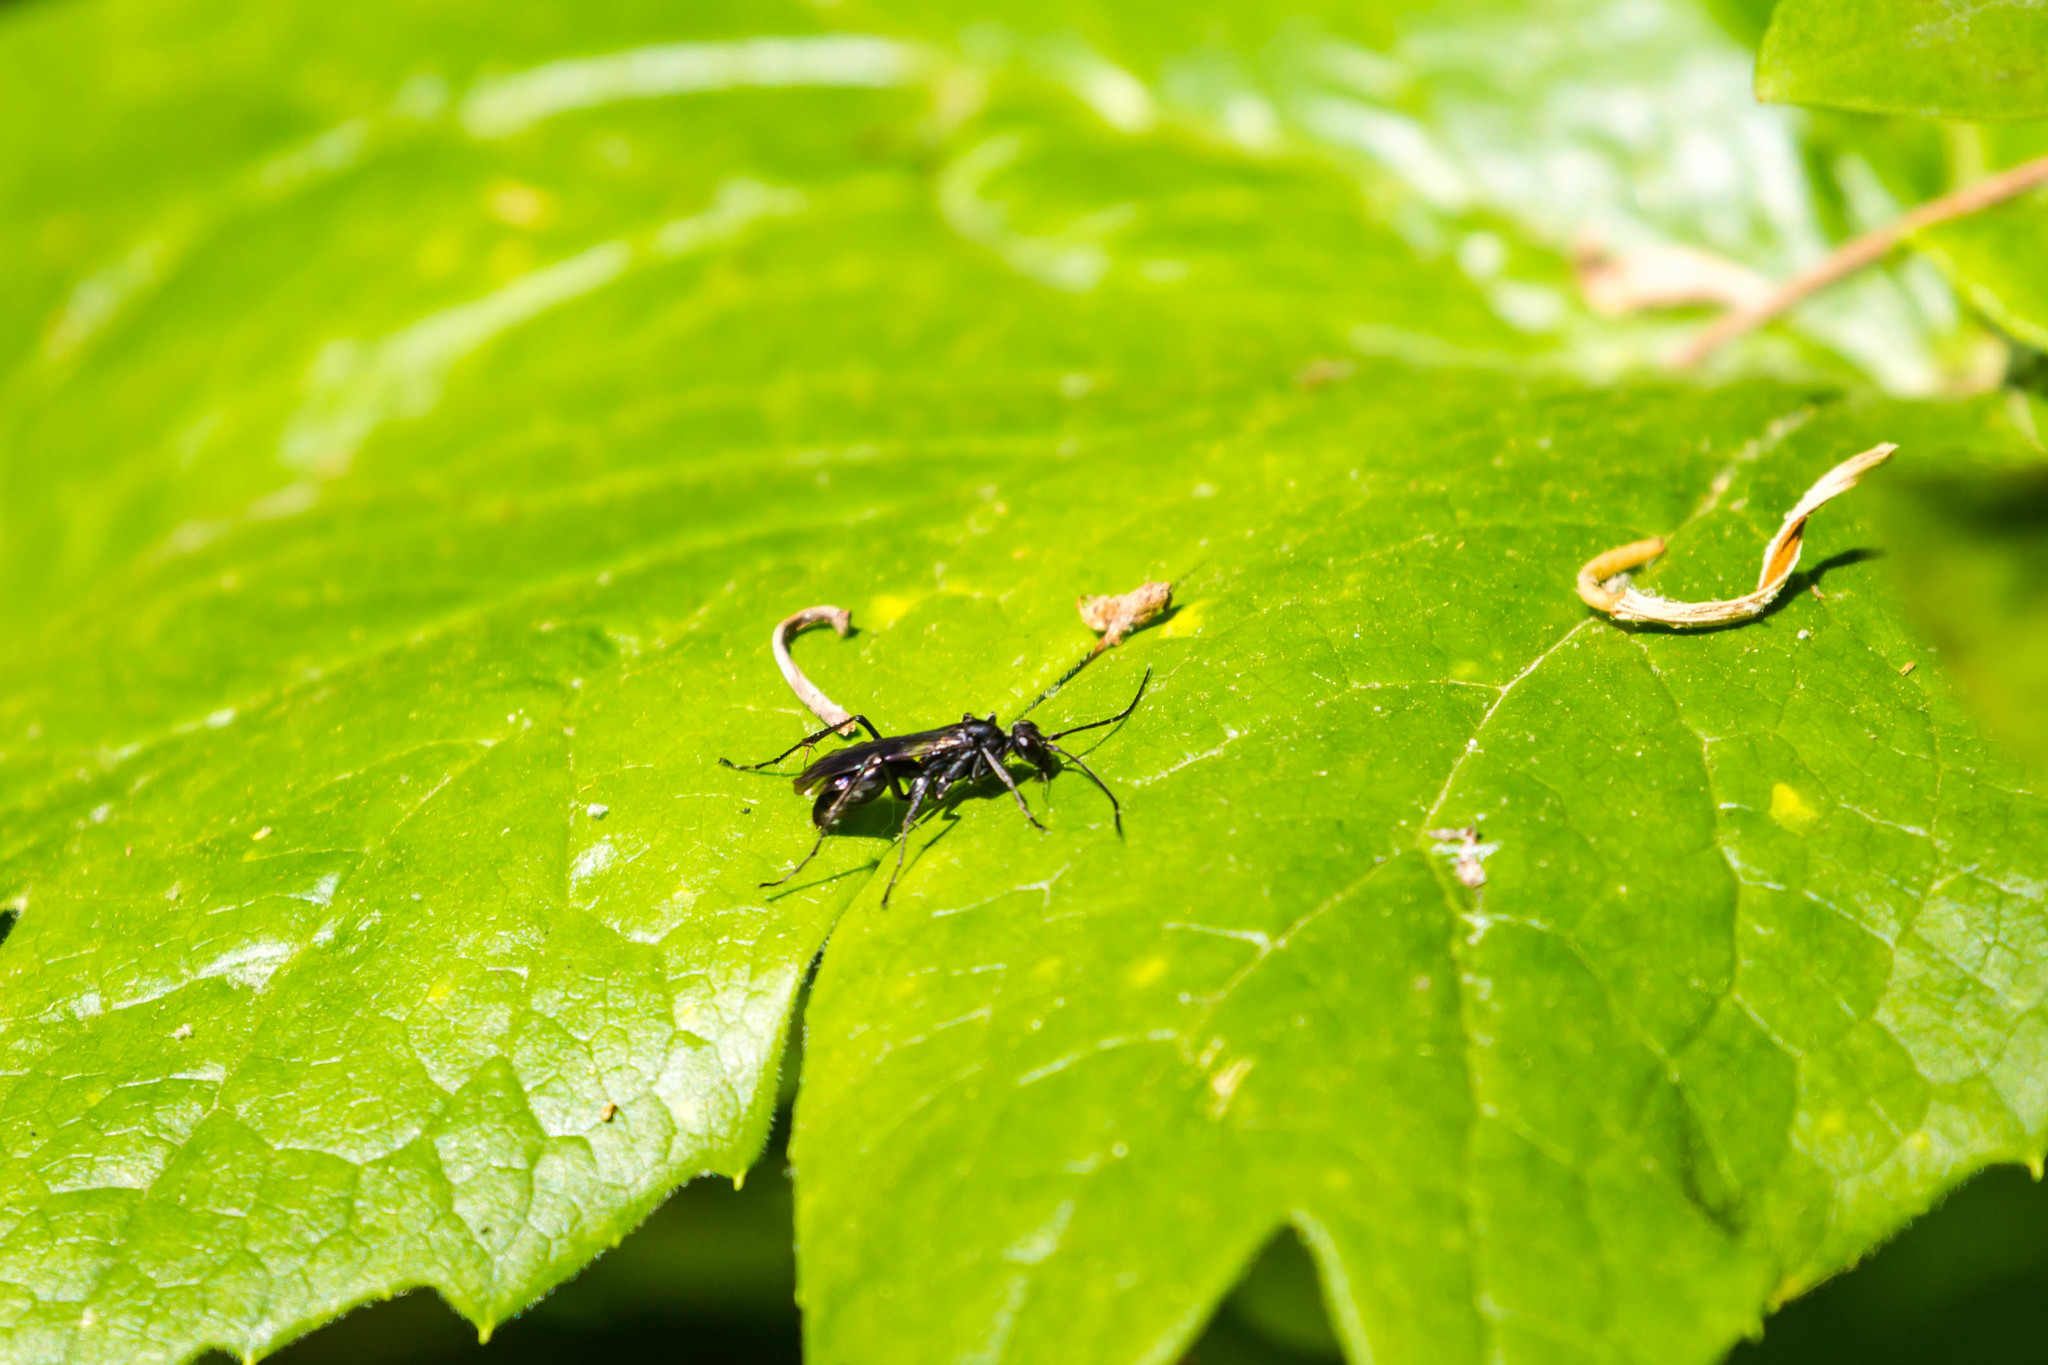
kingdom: Animalia
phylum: Arthropoda
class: Insecta
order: Hymenoptera
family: Pompilidae
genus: Priocnemis
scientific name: Priocnemis minorata
